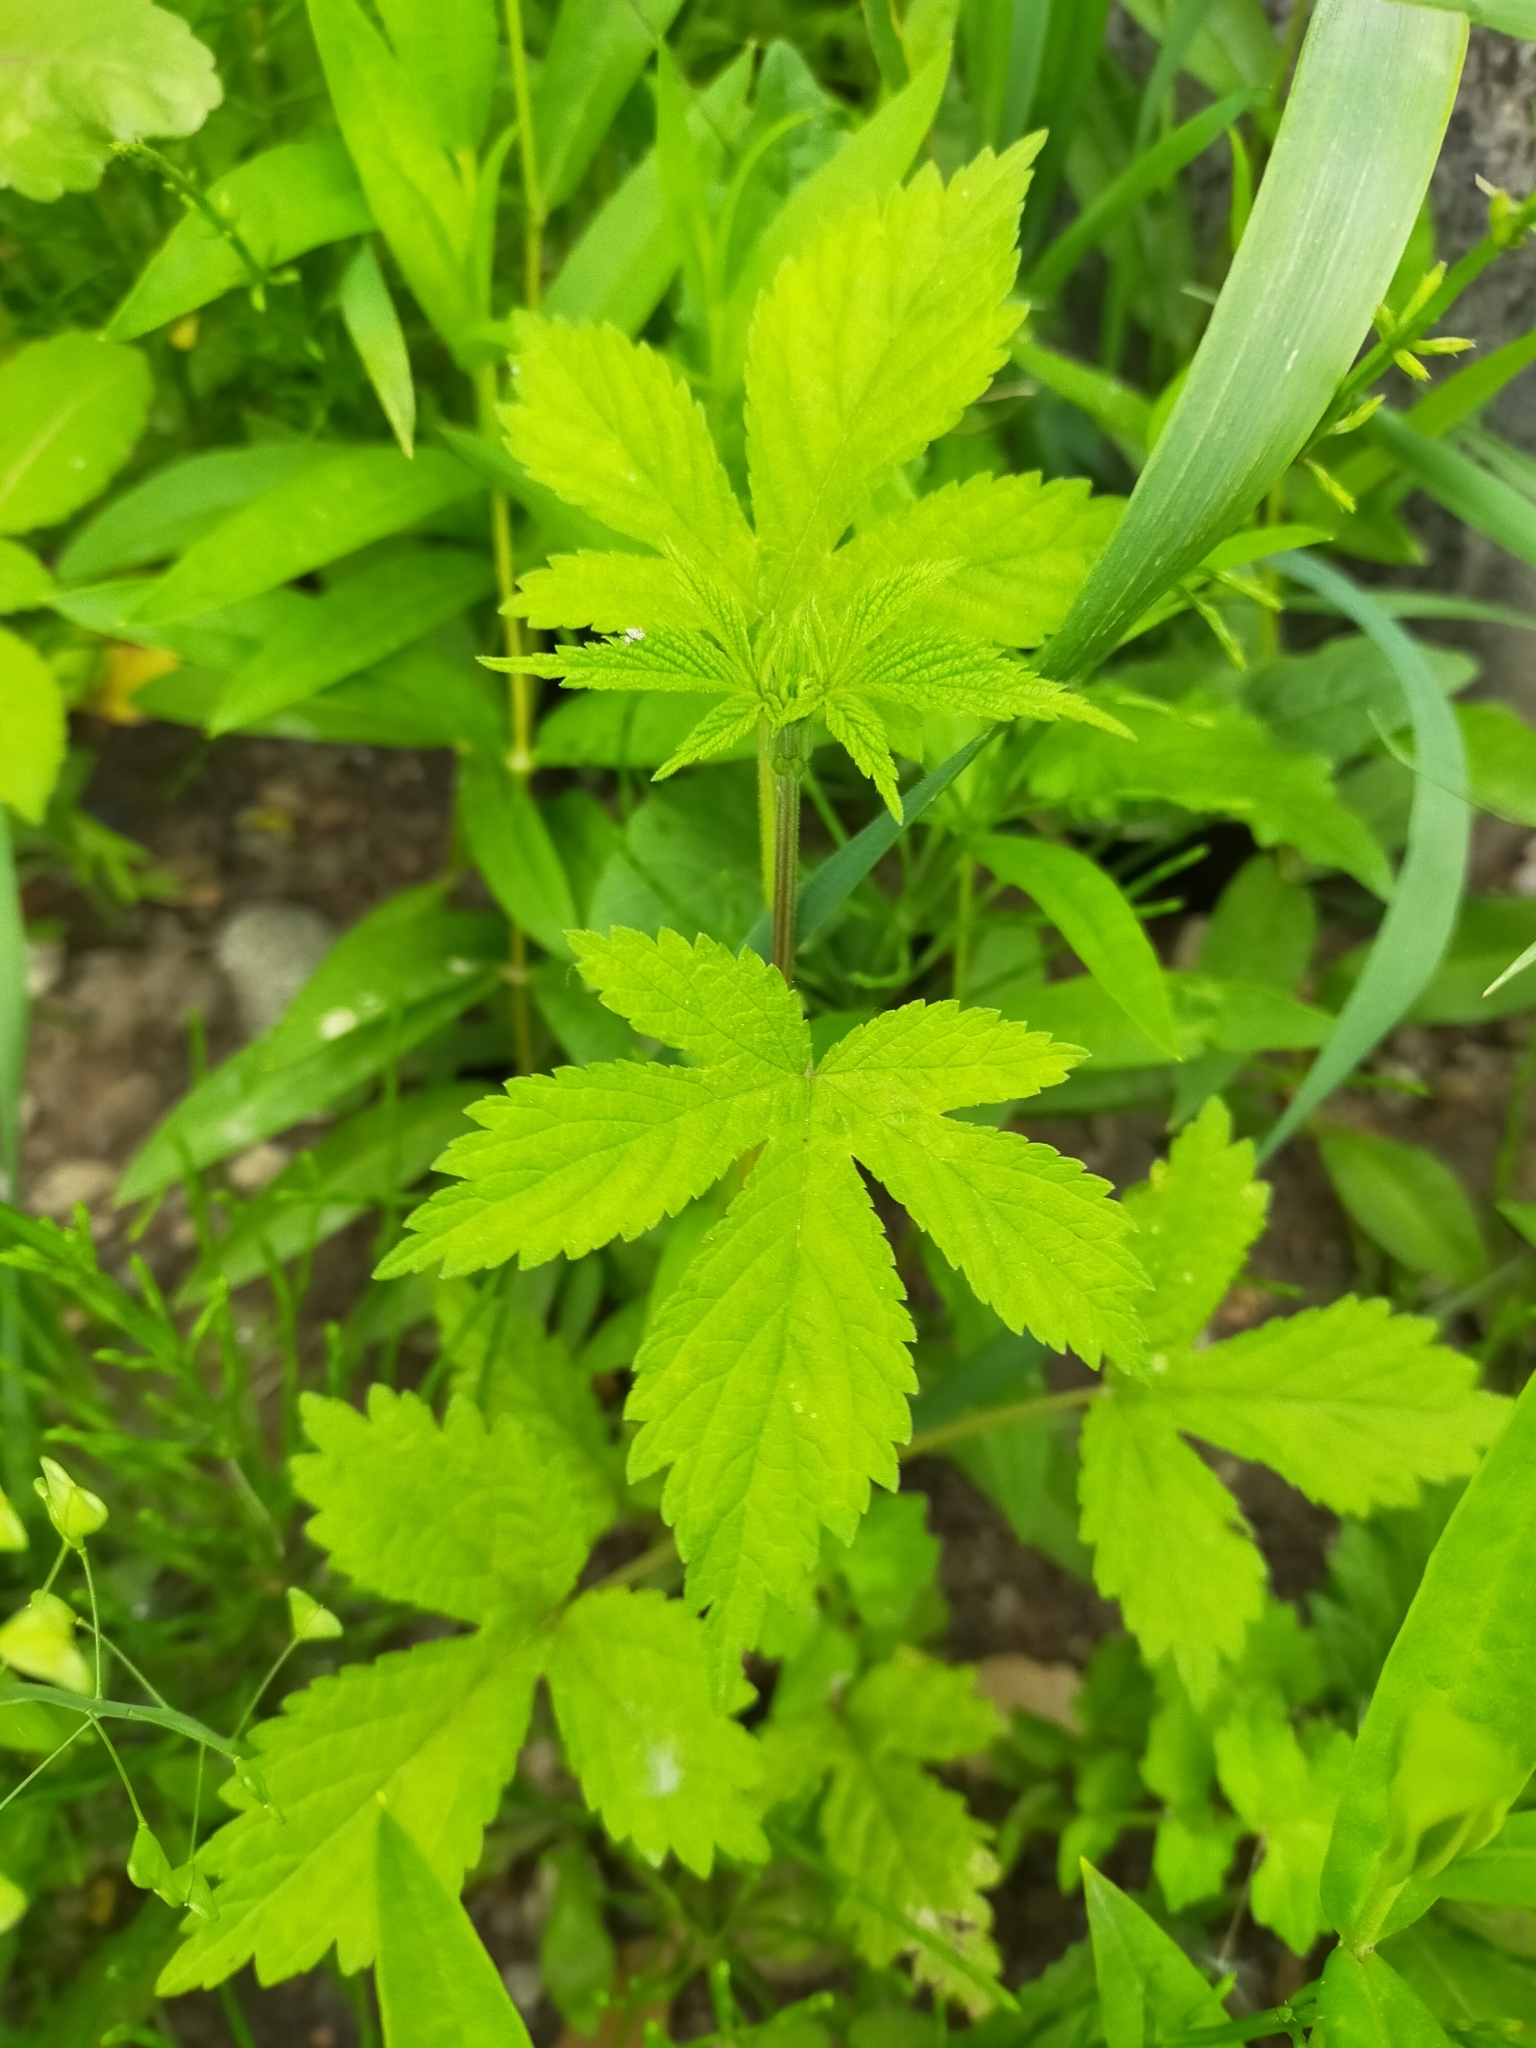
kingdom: Plantae
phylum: Tracheophyta
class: Magnoliopsida
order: Rosales
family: Cannabaceae
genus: Humulus
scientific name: Humulus scandens
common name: Japanese hop
